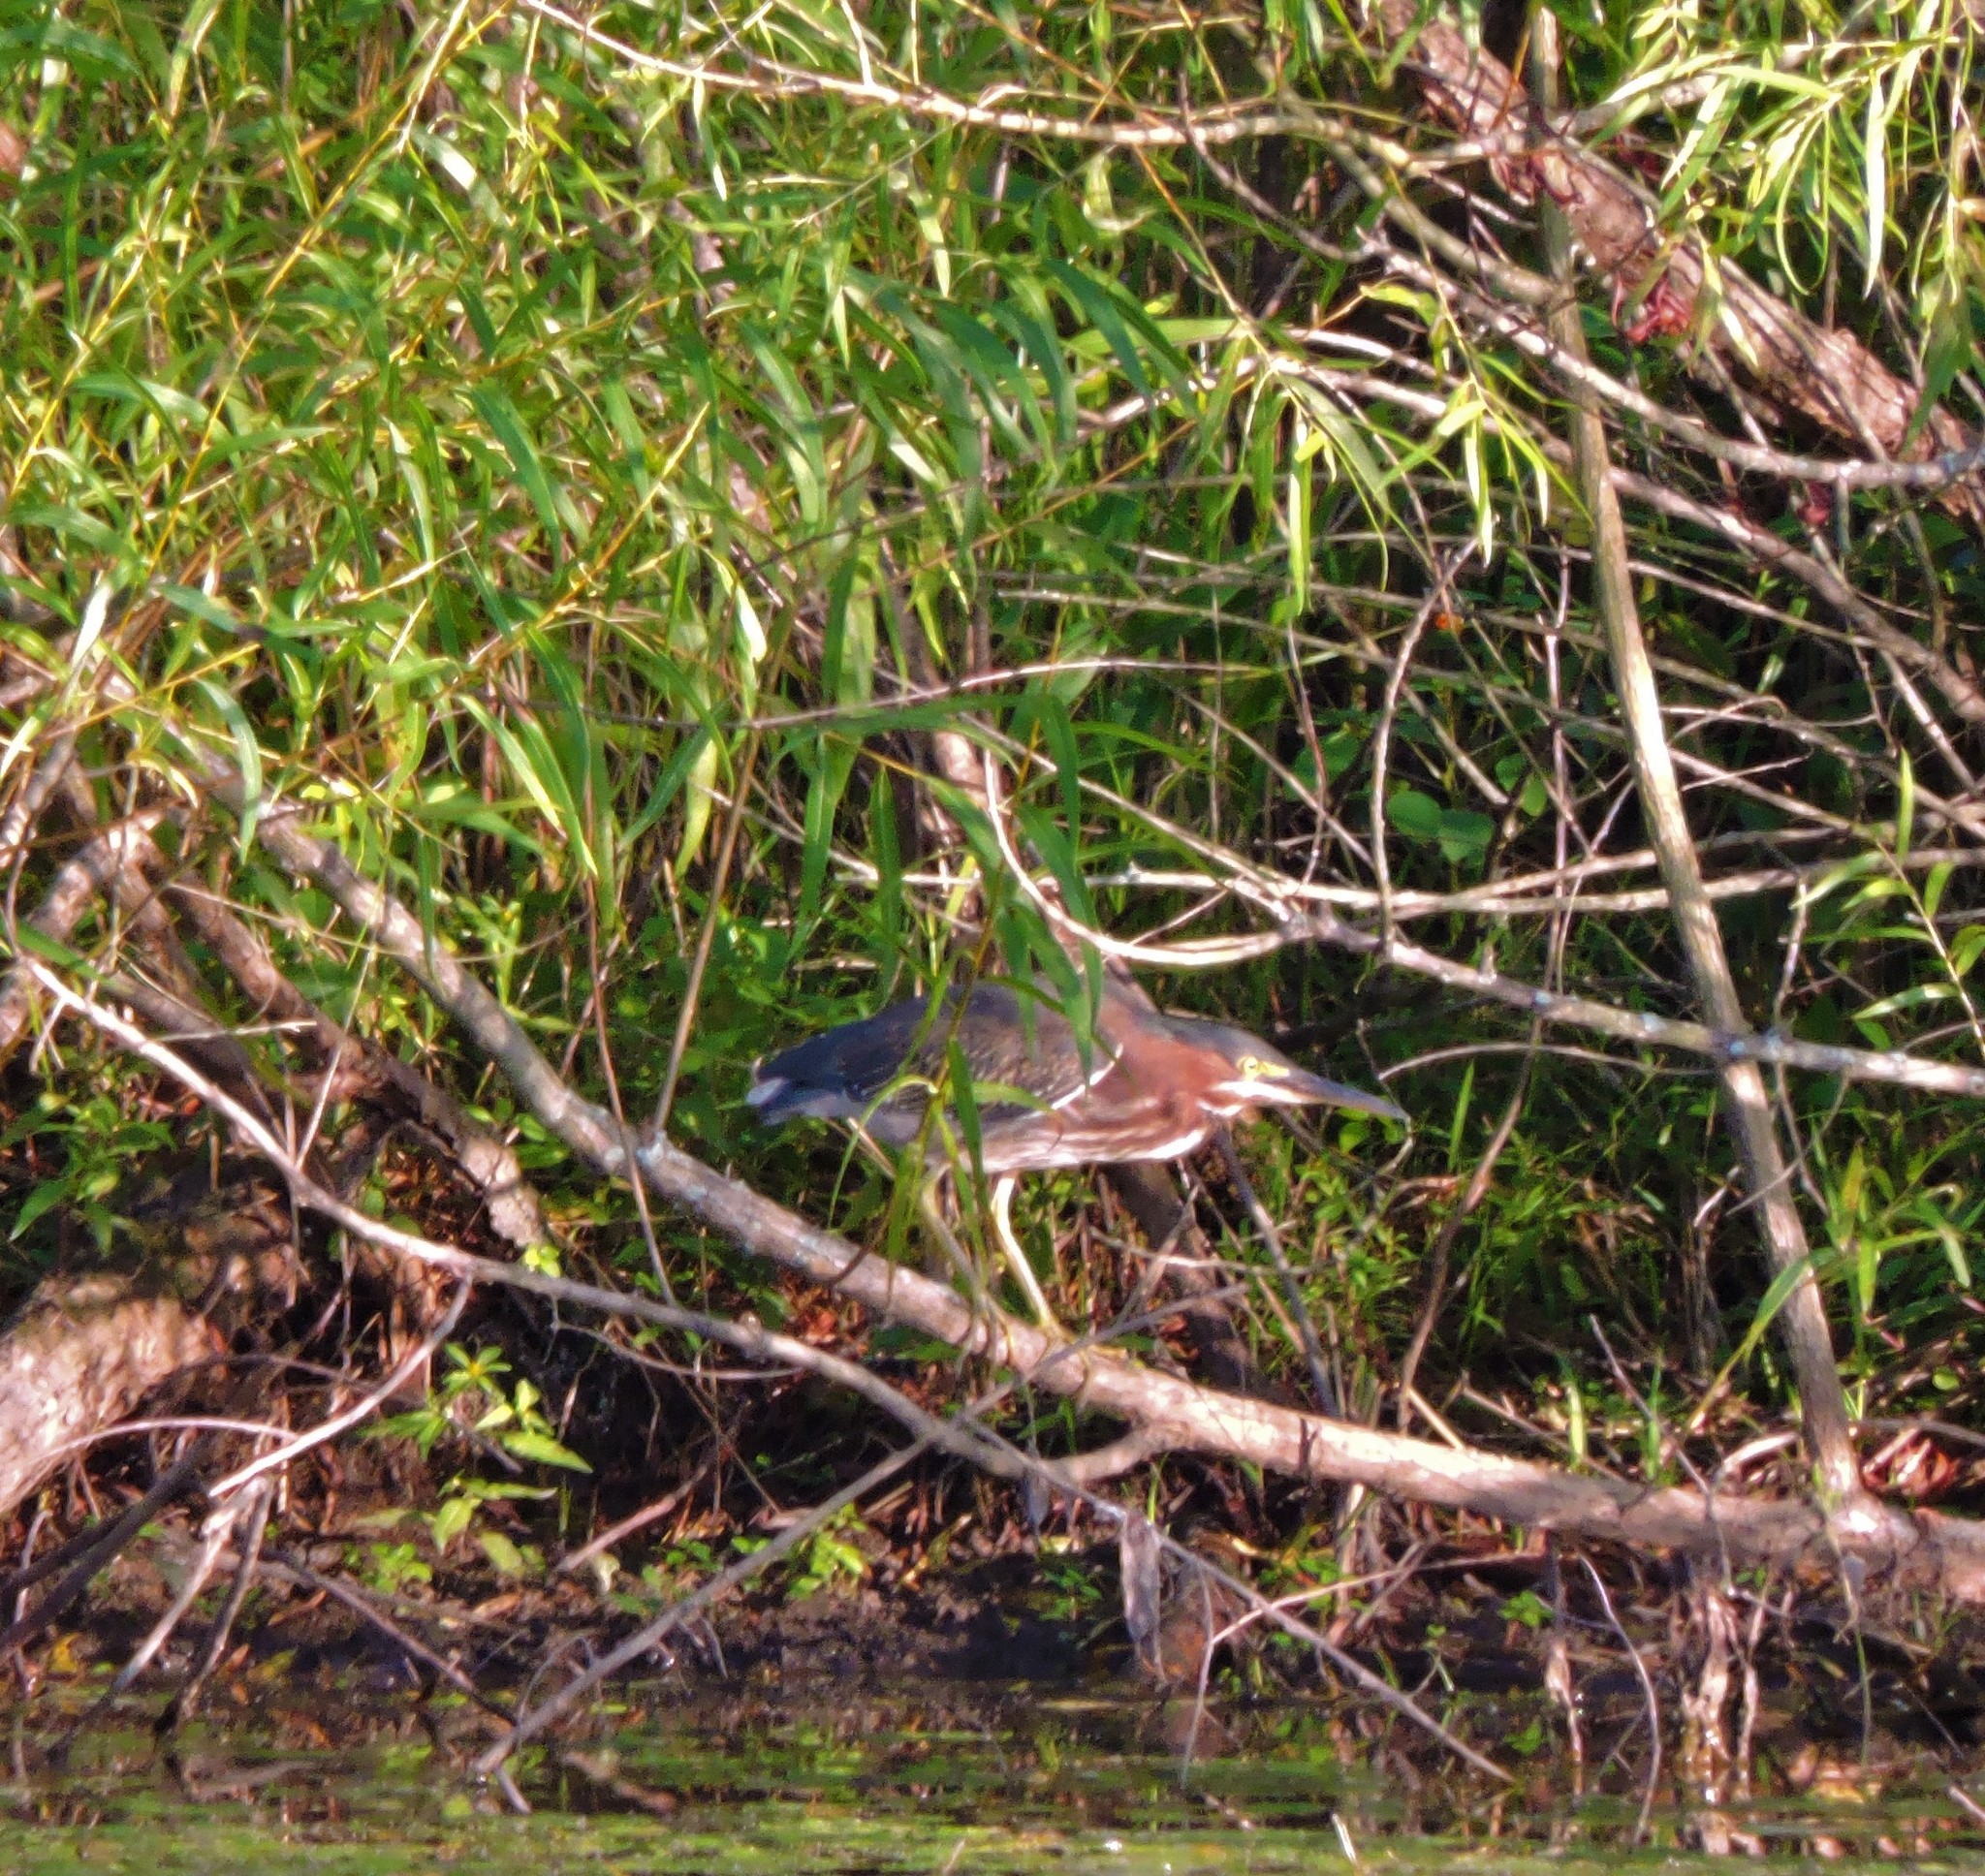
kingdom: Animalia
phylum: Chordata
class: Aves
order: Pelecaniformes
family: Ardeidae
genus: Butorides
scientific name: Butorides virescens
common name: Green heron
